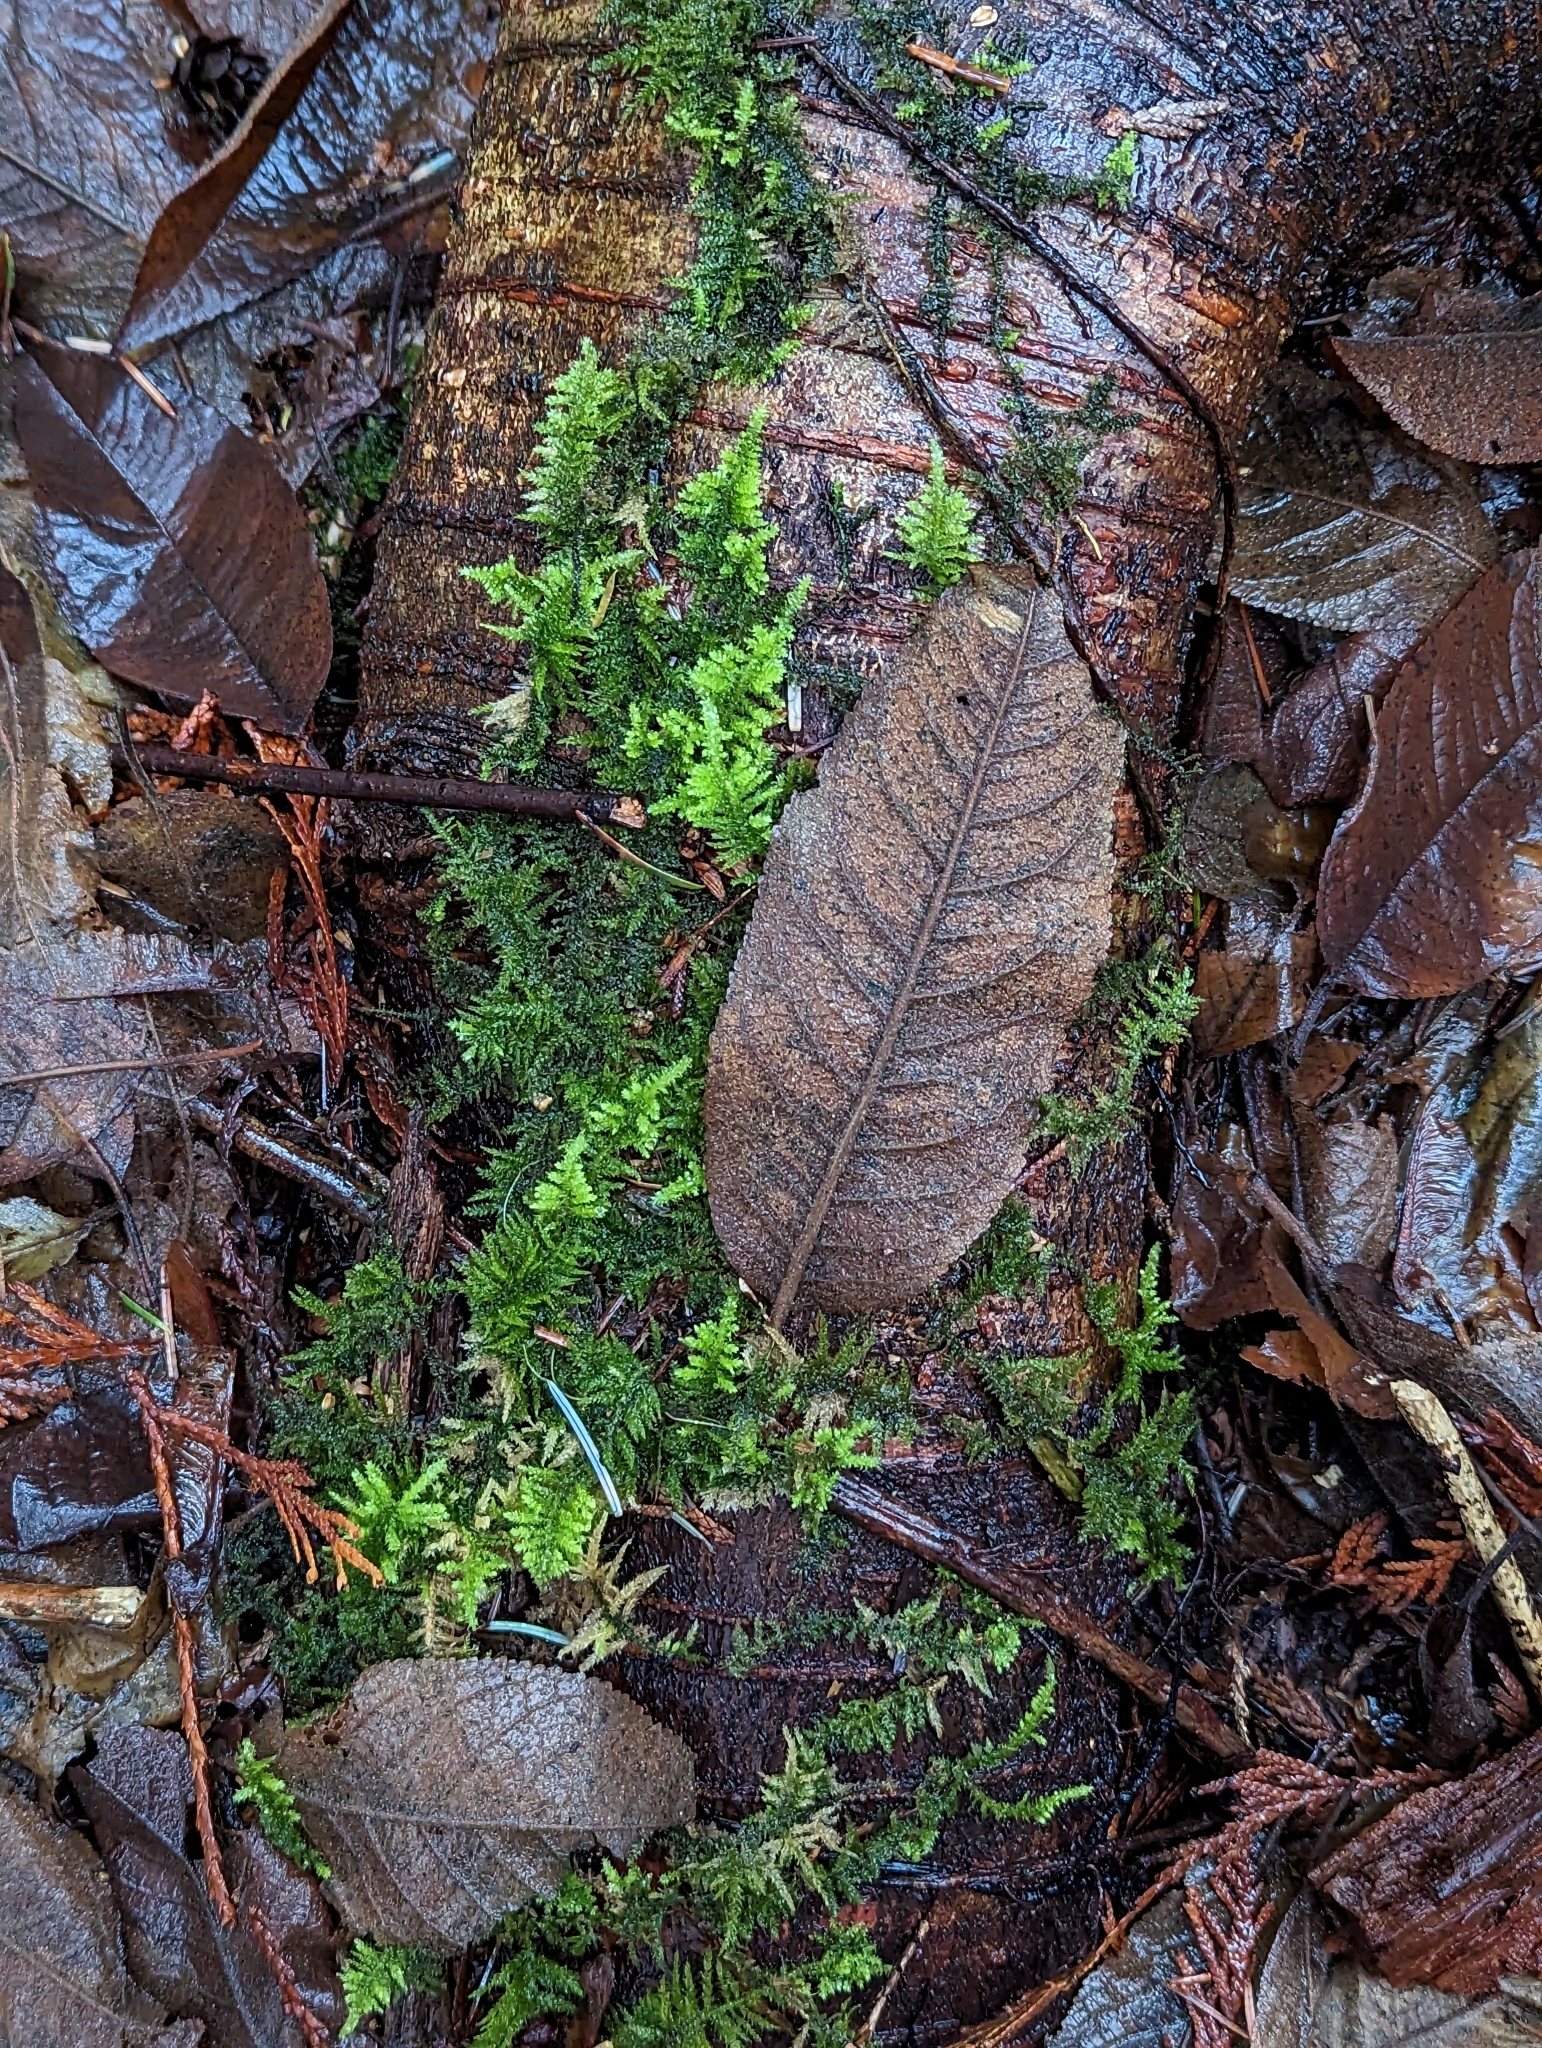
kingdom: Plantae
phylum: Bryophyta
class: Bryopsida
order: Hypnales
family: Brachytheciaceae
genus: Kindbergia
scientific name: Kindbergia oregana
